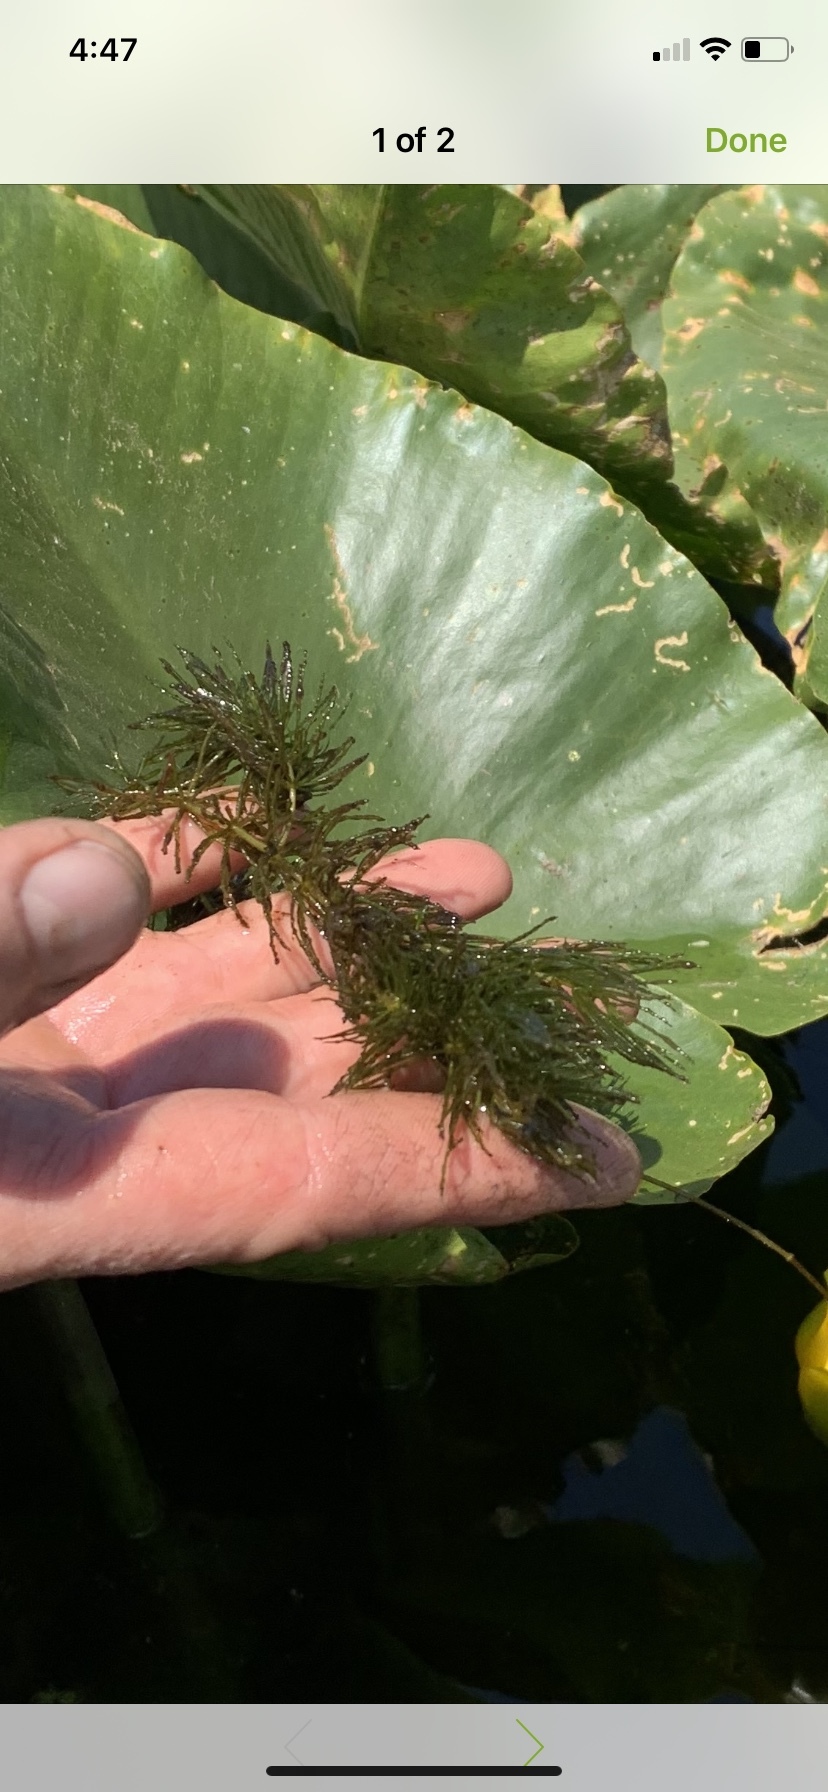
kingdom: Plantae
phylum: Tracheophyta
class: Magnoliopsida
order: Ceratophyllales
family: Ceratophyllaceae
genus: Ceratophyllum
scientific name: Ceratophyllum demersum
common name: Rigid hornwort
